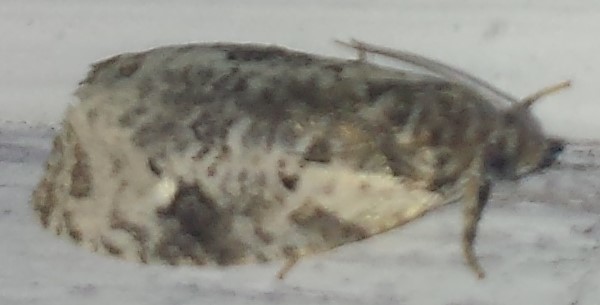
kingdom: Animalia
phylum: Arthropoda
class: Insecta
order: Lepidoptera
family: Tortricidae
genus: Apotomis
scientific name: Apotomis albeolana
